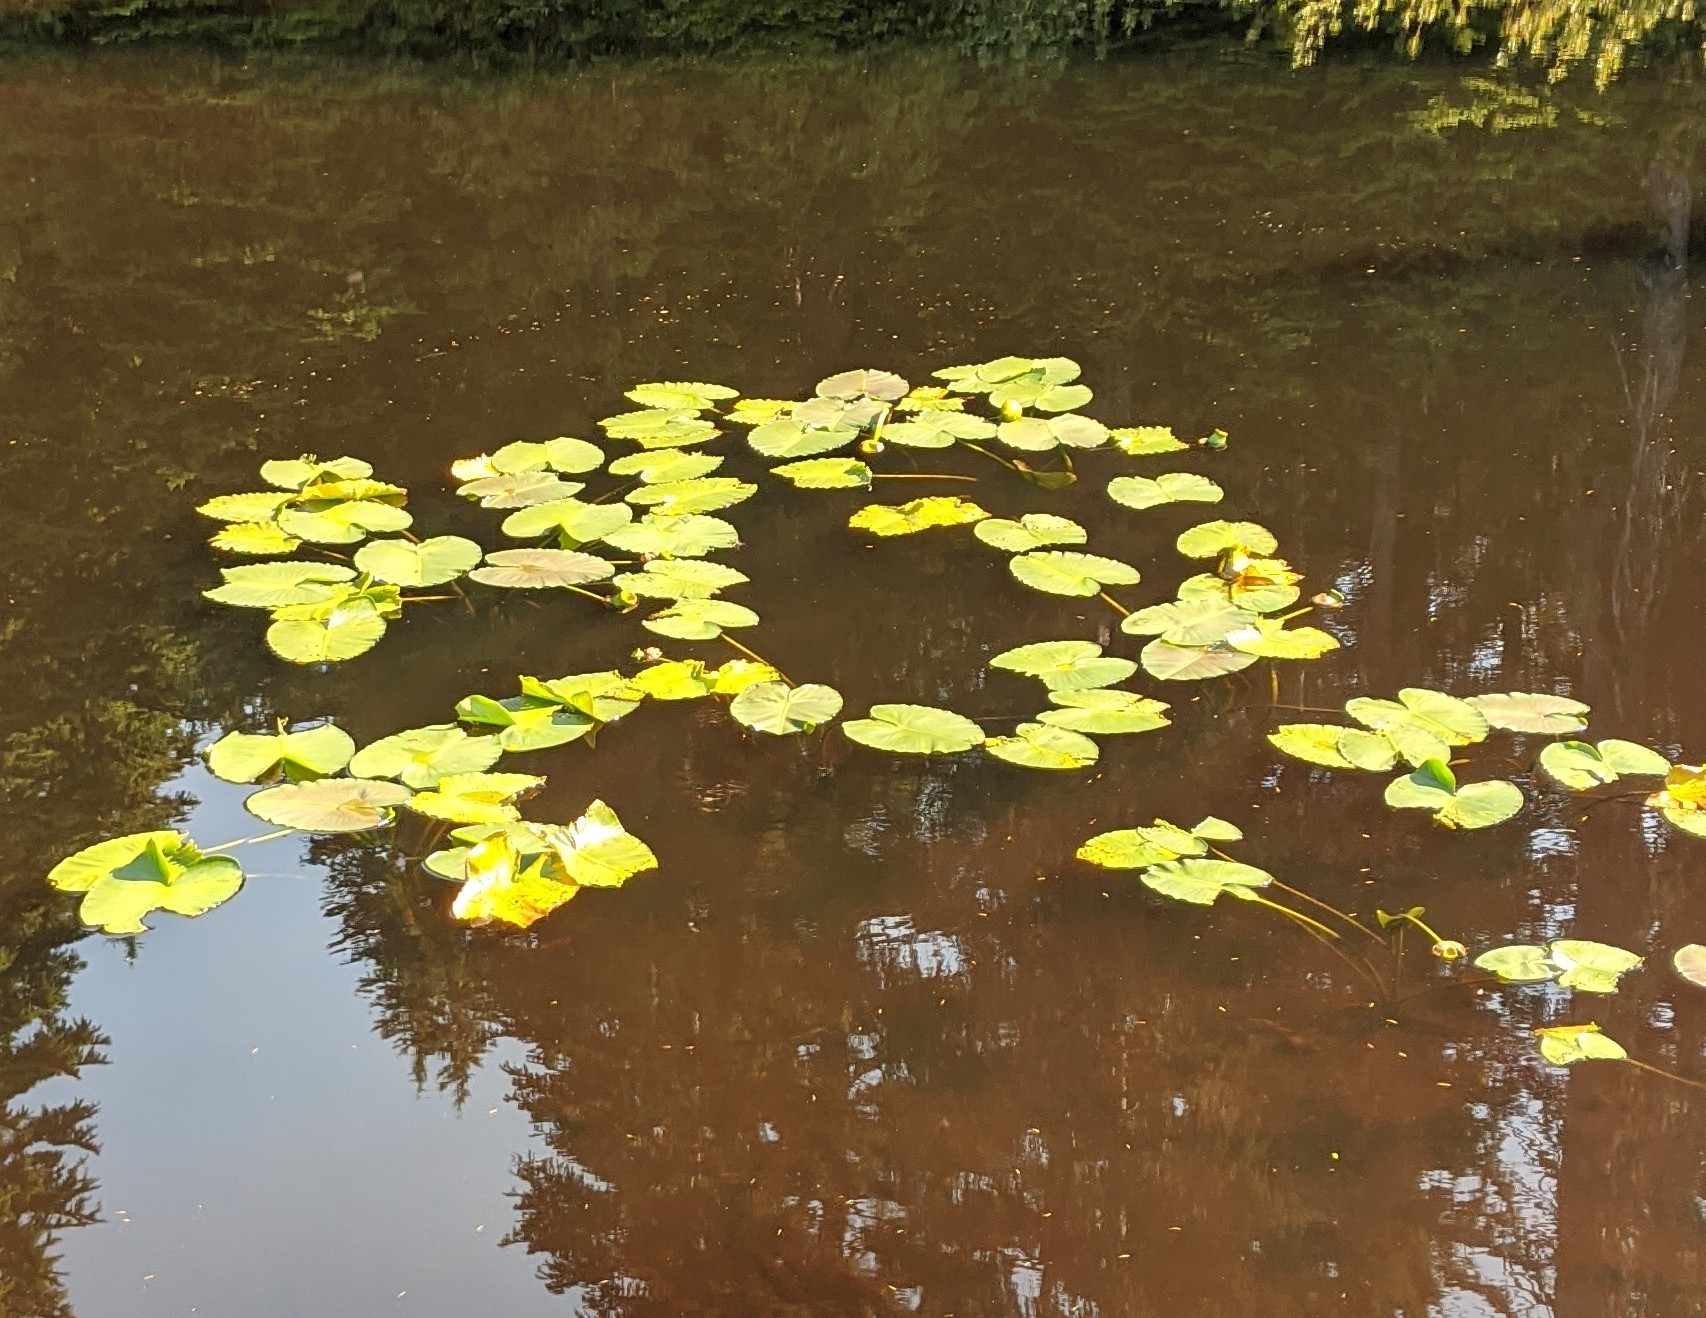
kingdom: Plantae
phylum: Tracheophyta
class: Magnoliopsida
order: Nymphaeales
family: Nymphaeaceae
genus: Nuphar
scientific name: Nuphar polysepala
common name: Rocky mountain cow-lily
